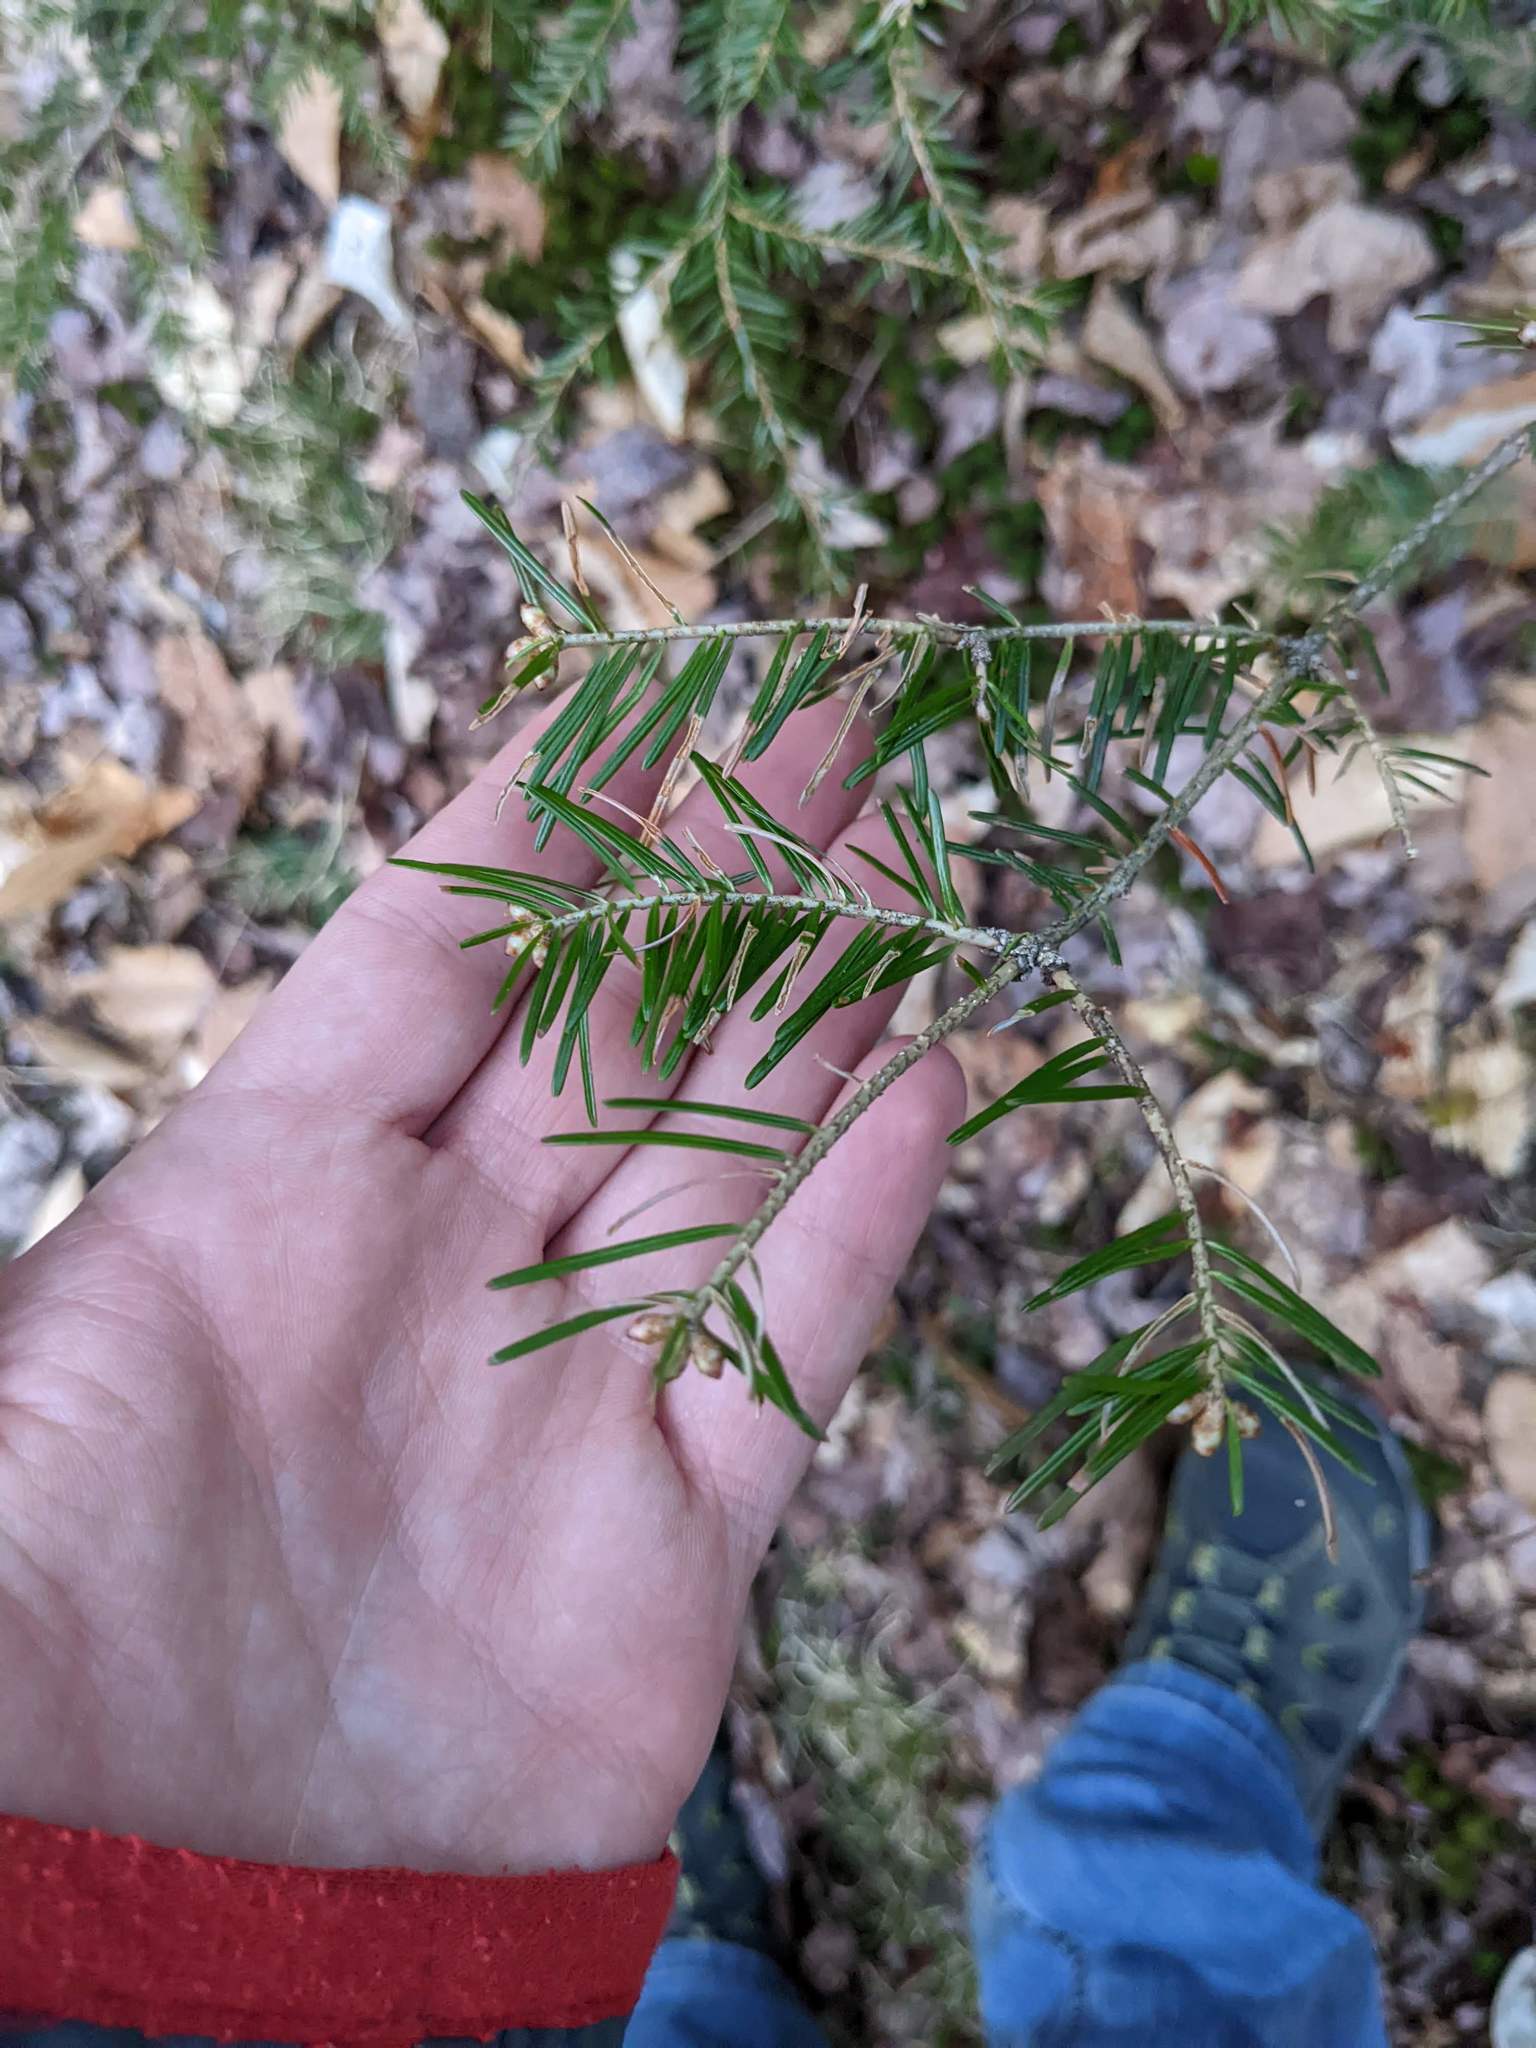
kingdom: Plantae
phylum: Tracheophyta
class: Pinopsida
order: Pinales
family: Pinaceae
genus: Abies
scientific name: Abies balsamea
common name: Balsam fir
